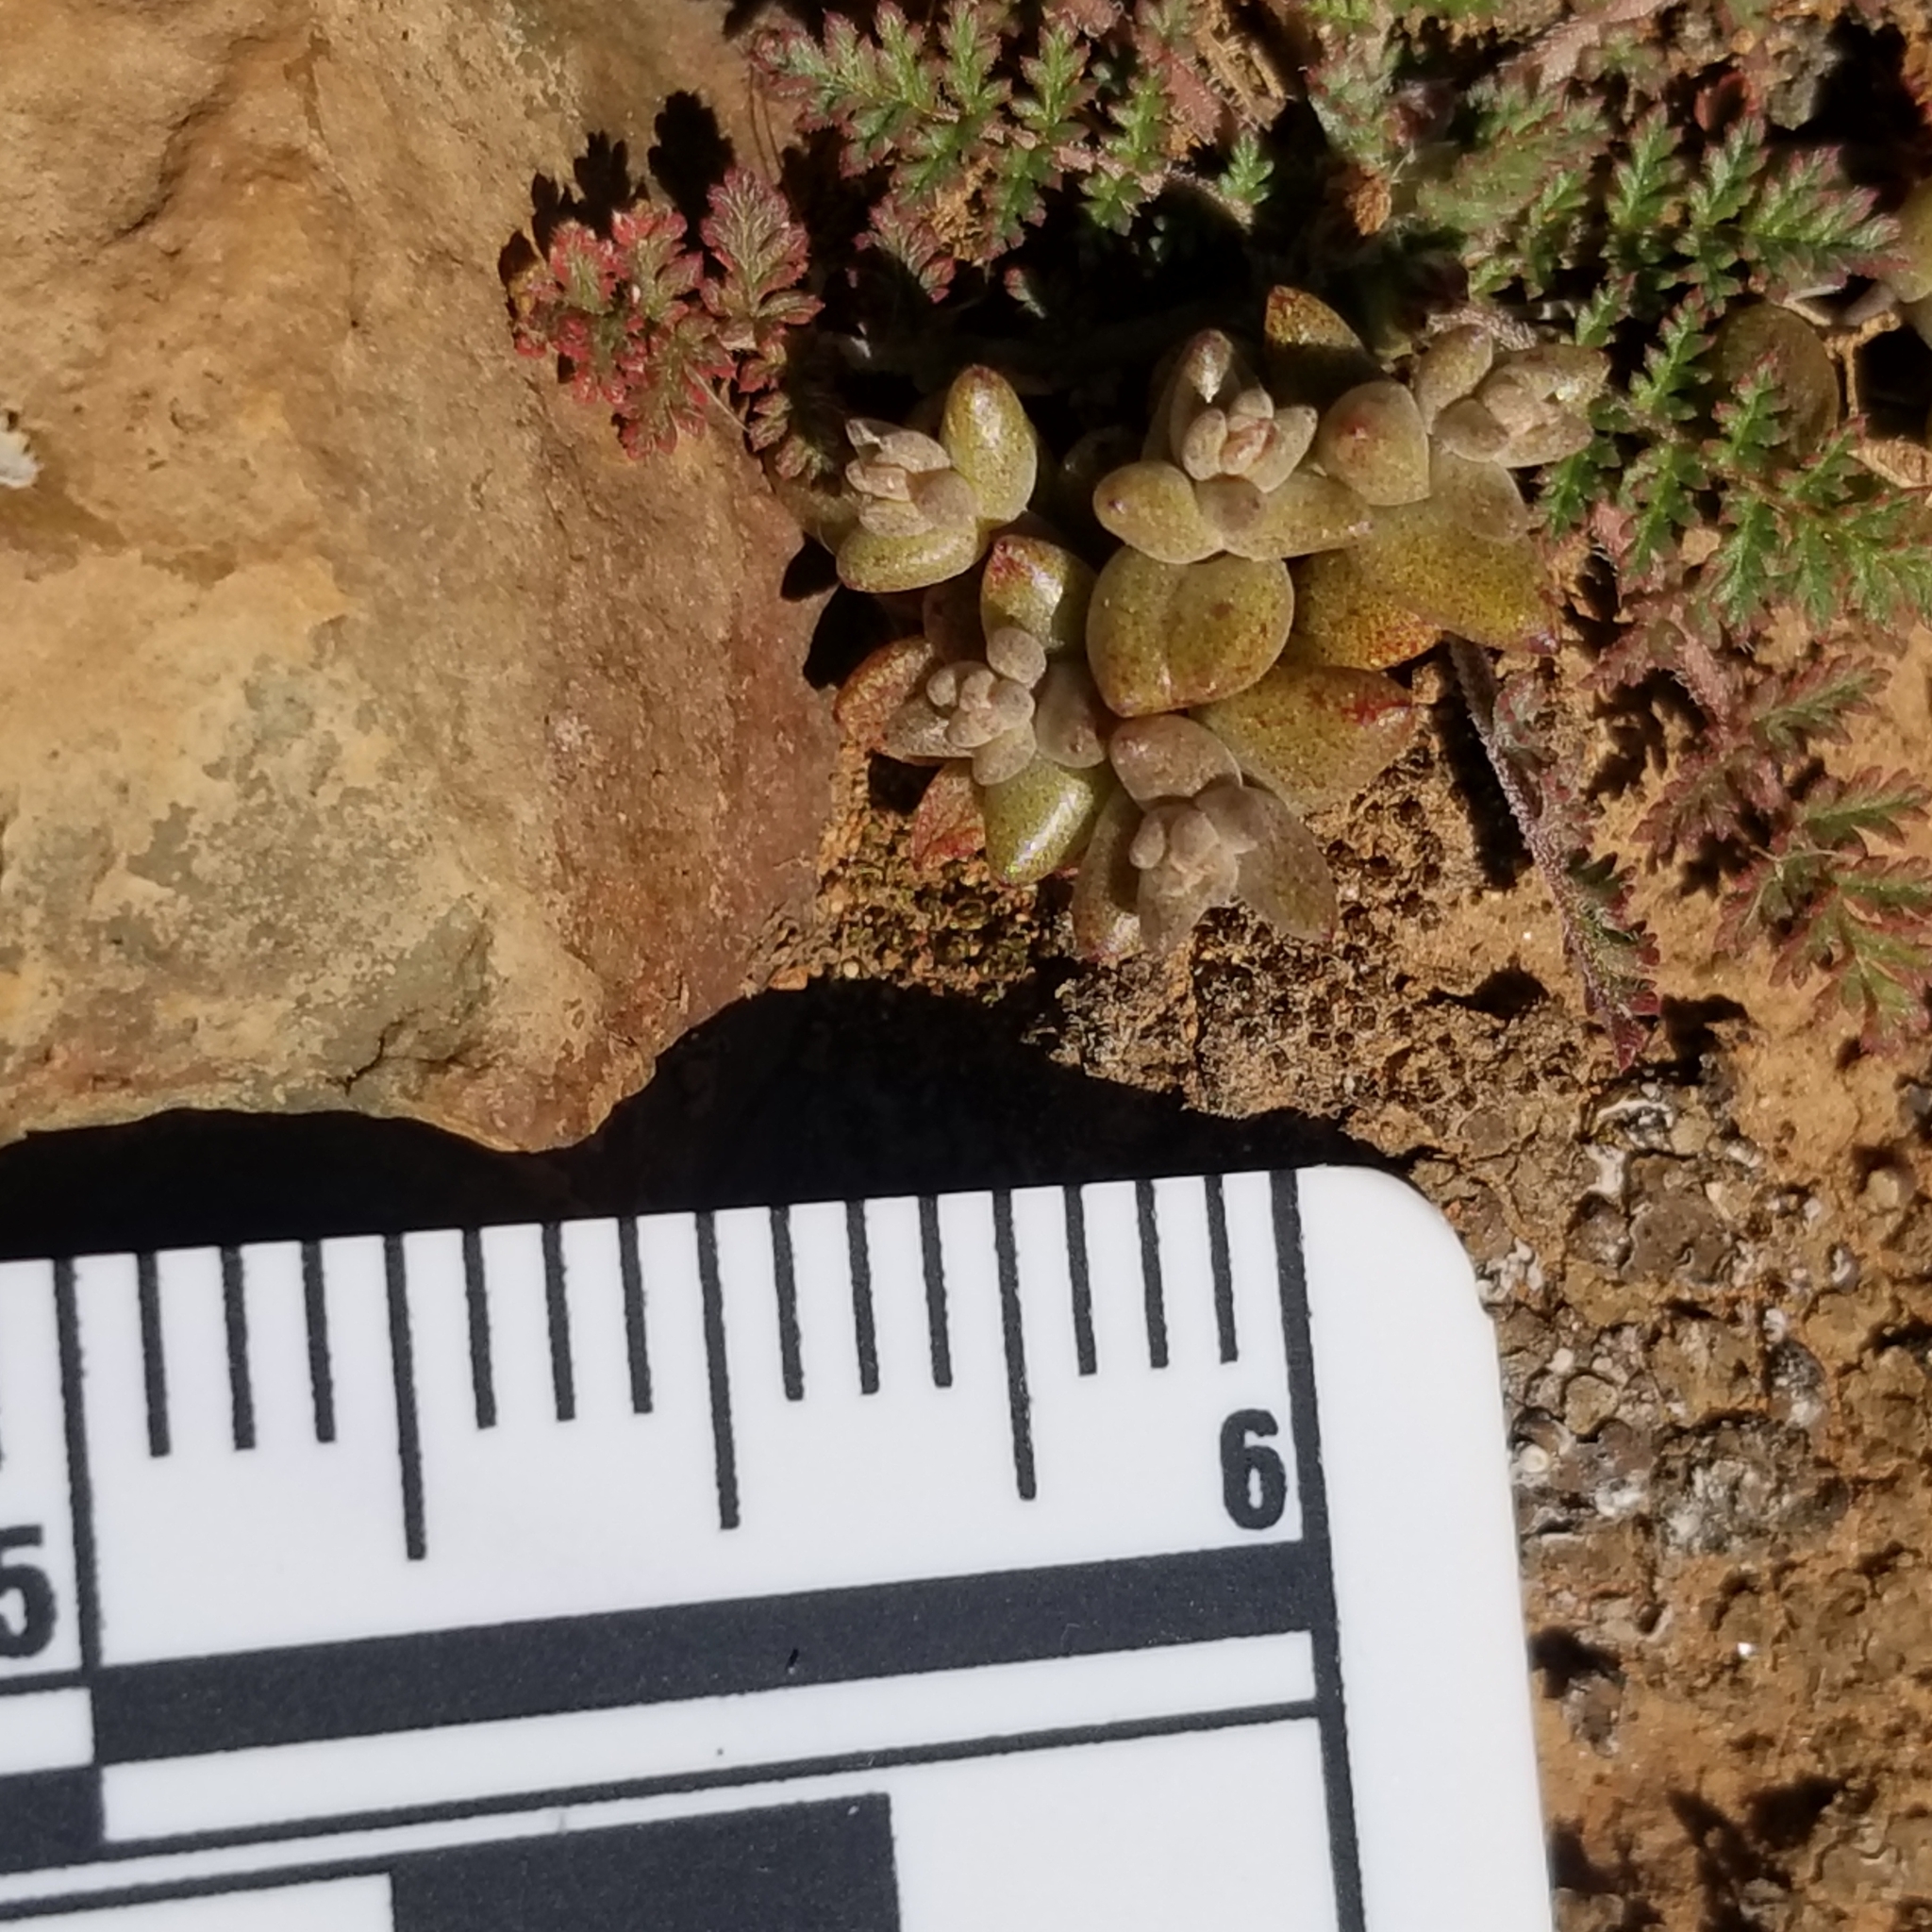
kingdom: Plantae
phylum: Tracheophyta
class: Magnoliopsida
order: Saxifragales
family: Crassulaceae
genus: Dudleya
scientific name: Dudleya variegata
